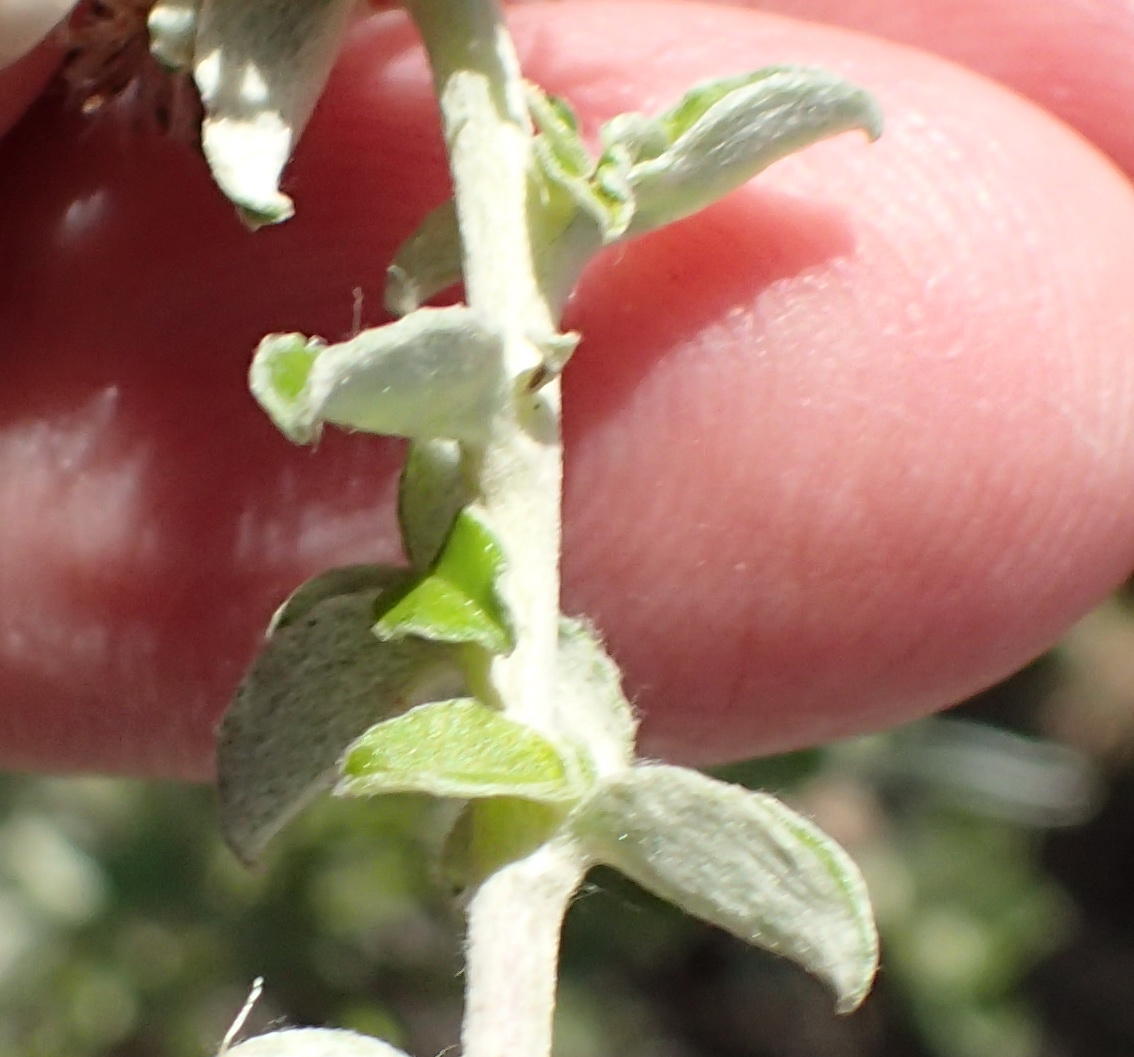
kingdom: Plantae
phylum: Tracheophyta
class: Magnoliopsida
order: Asterales
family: Asteraceae
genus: Plecostachys
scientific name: Plecostachys serpyllifolia
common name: Petite licorice
